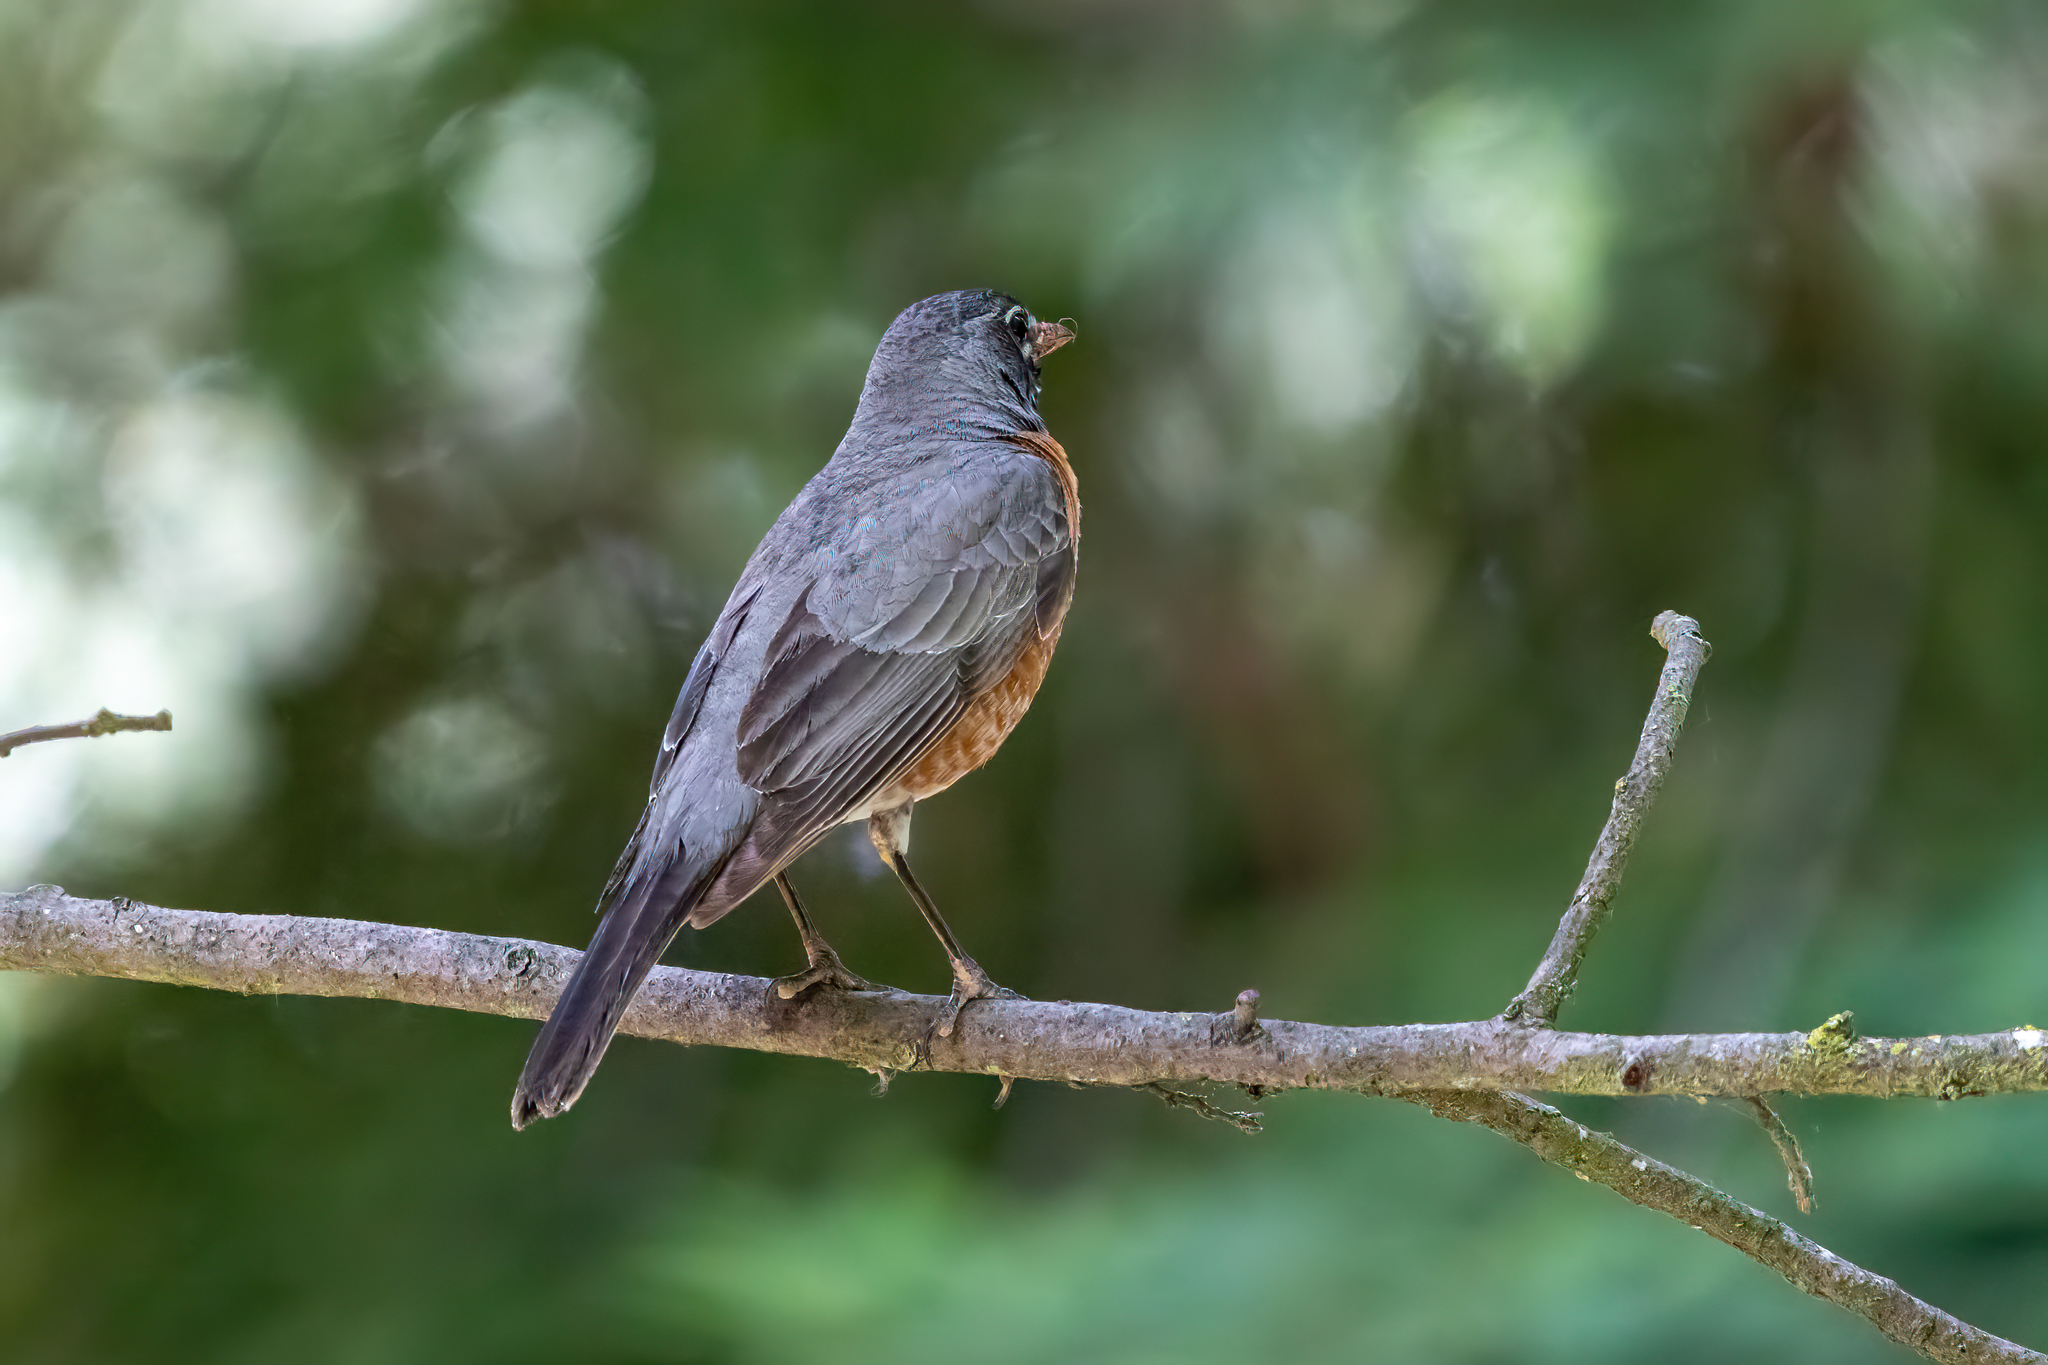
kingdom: Animalia
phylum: Chordata
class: Aves
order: Passeriformes
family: Turdidae
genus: Turdus
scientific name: Turdus migratorius
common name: American robin
